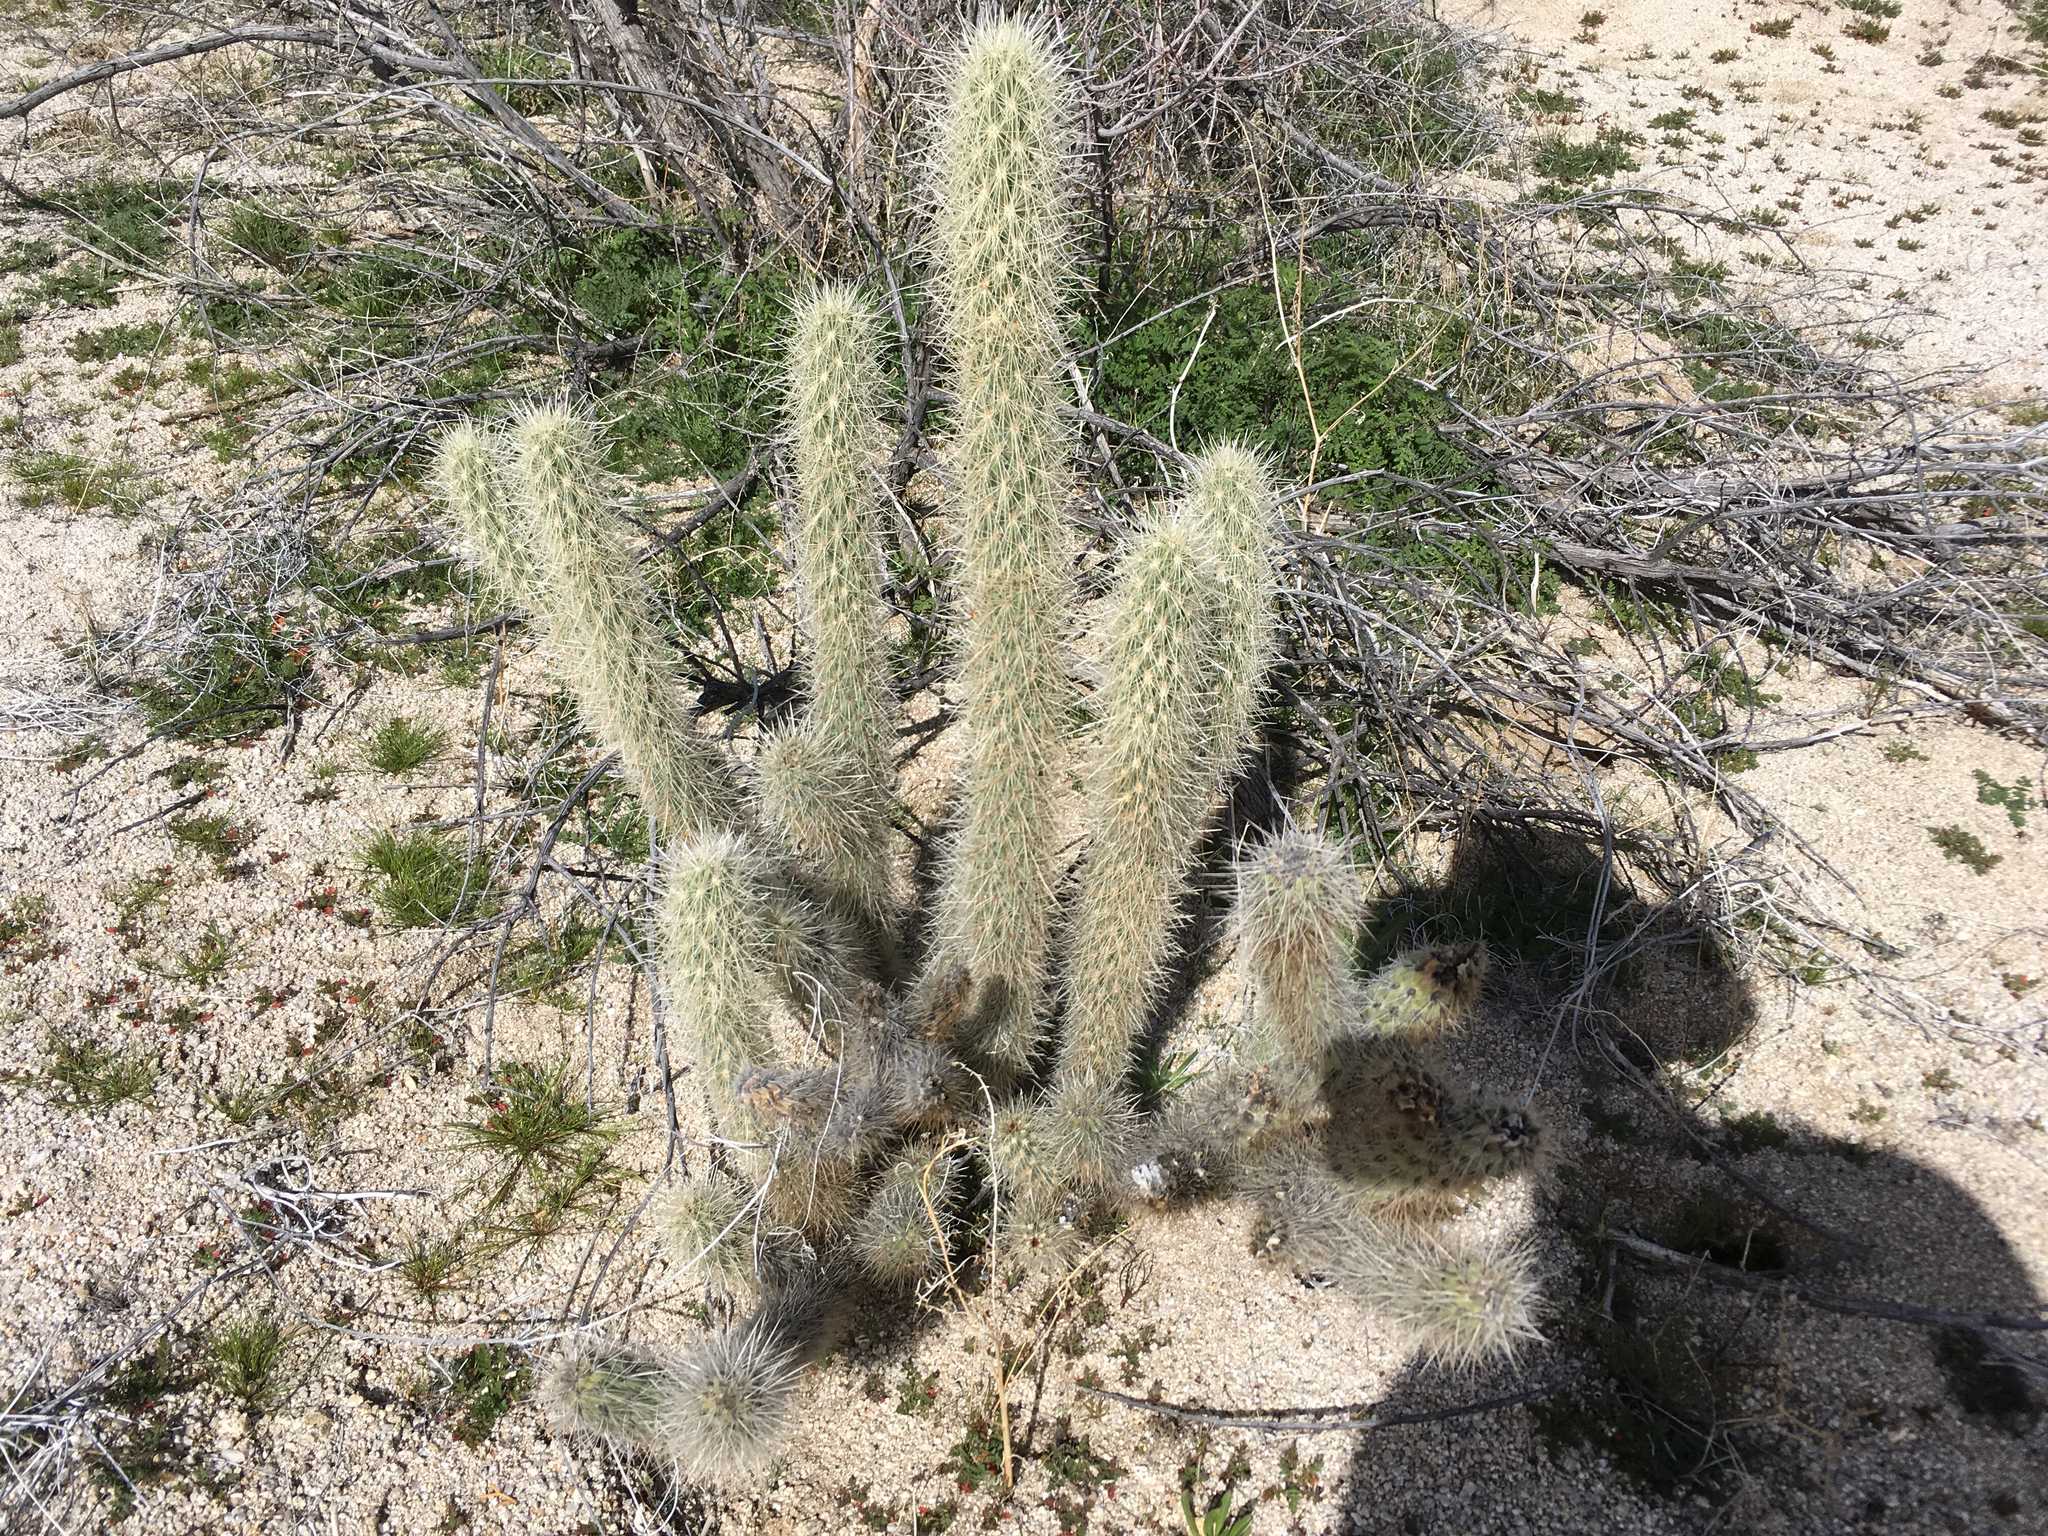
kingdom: Plantae
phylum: Tracheophyta
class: Magnoliopsida
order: Caryophyllales
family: Cactaceae
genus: Cylindropuntia
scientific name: Cylindropuntia ganderi
